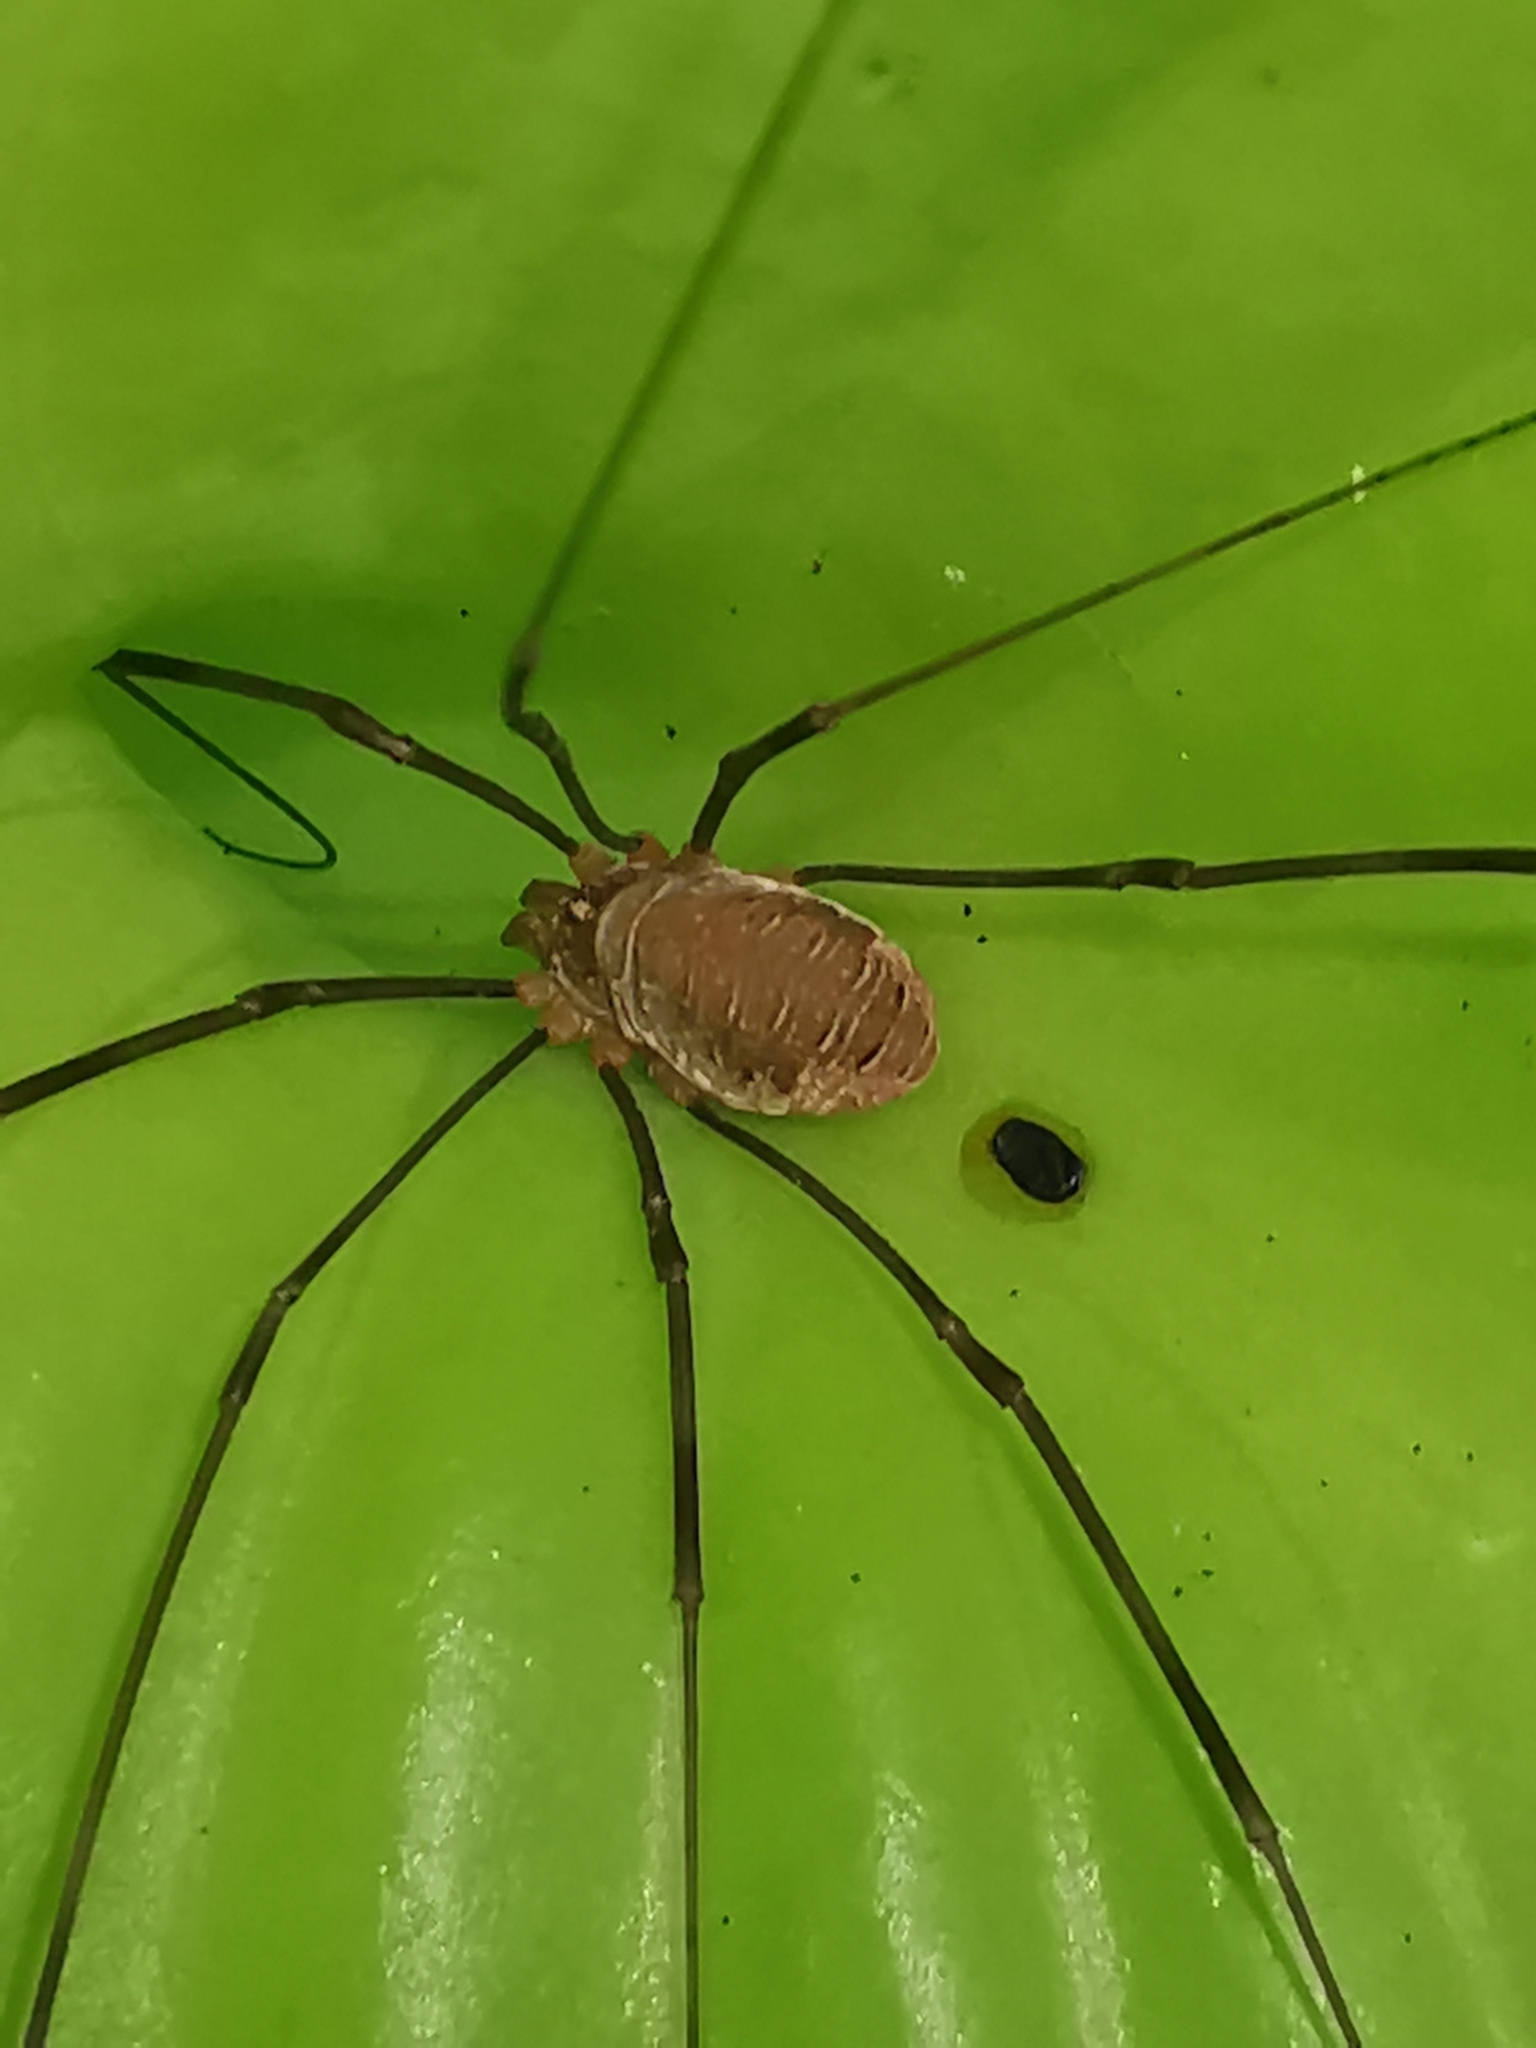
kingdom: Animalia
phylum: Arthropoda
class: Arachnida
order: Opiliones
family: Phalangiidae
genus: Opilio
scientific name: Opilio canestrinii
